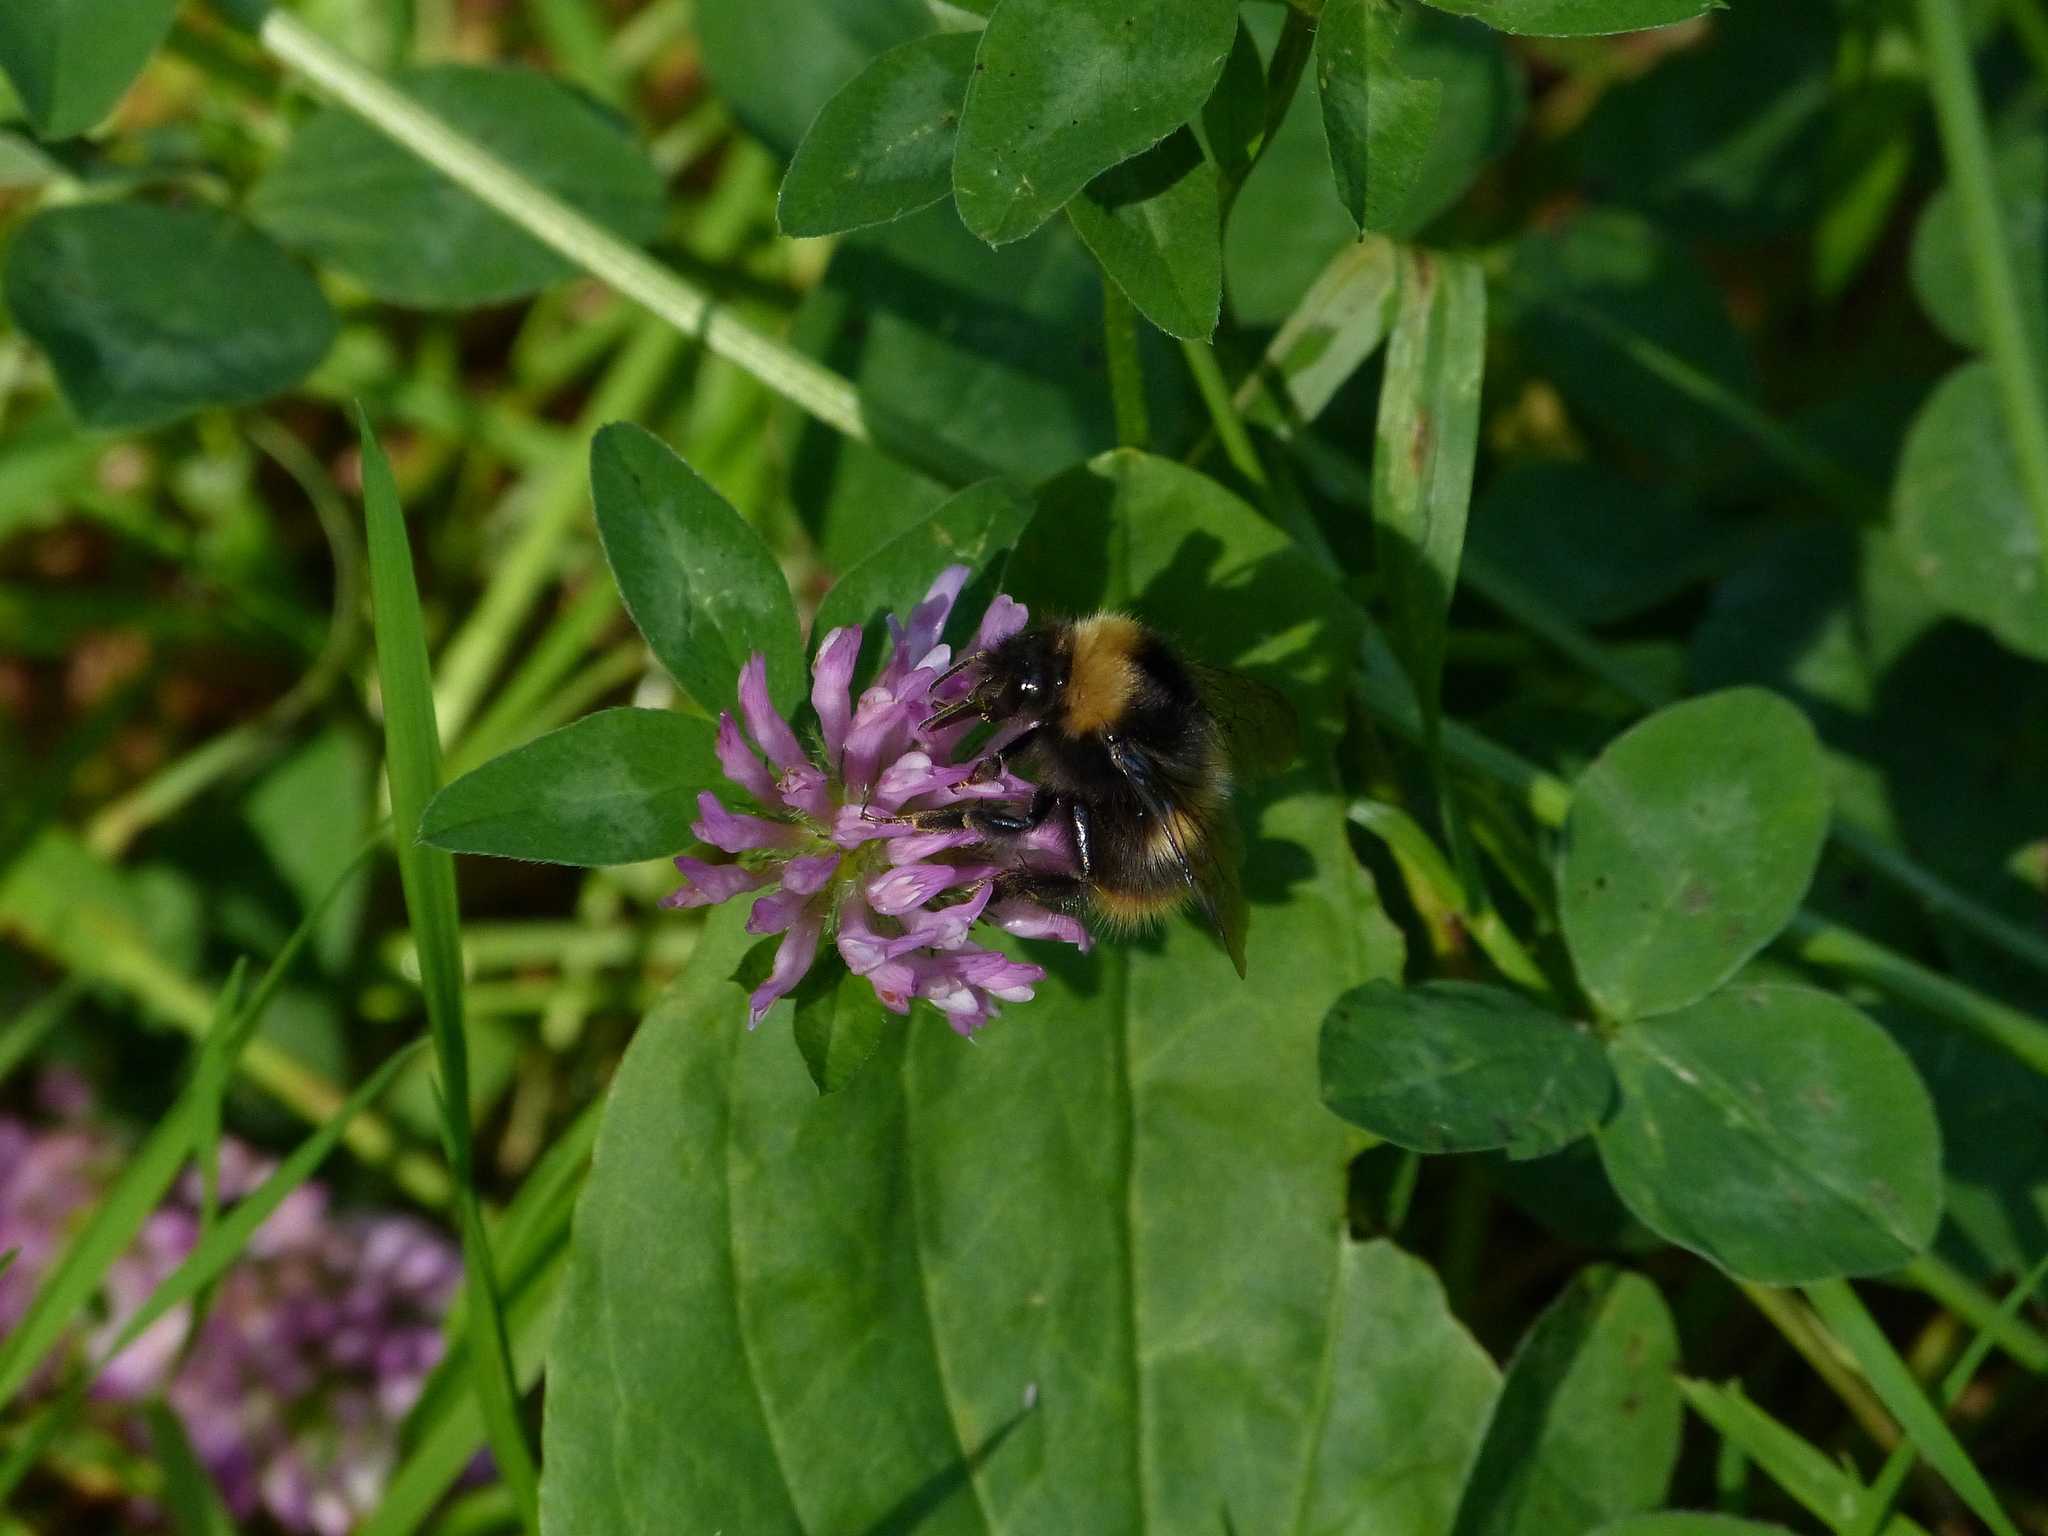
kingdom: Animalia
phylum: Arthropoda
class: Insecta
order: Hymenoptera
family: Apidae
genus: Bombus
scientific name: Bombus pratorum
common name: Early humble-bee
